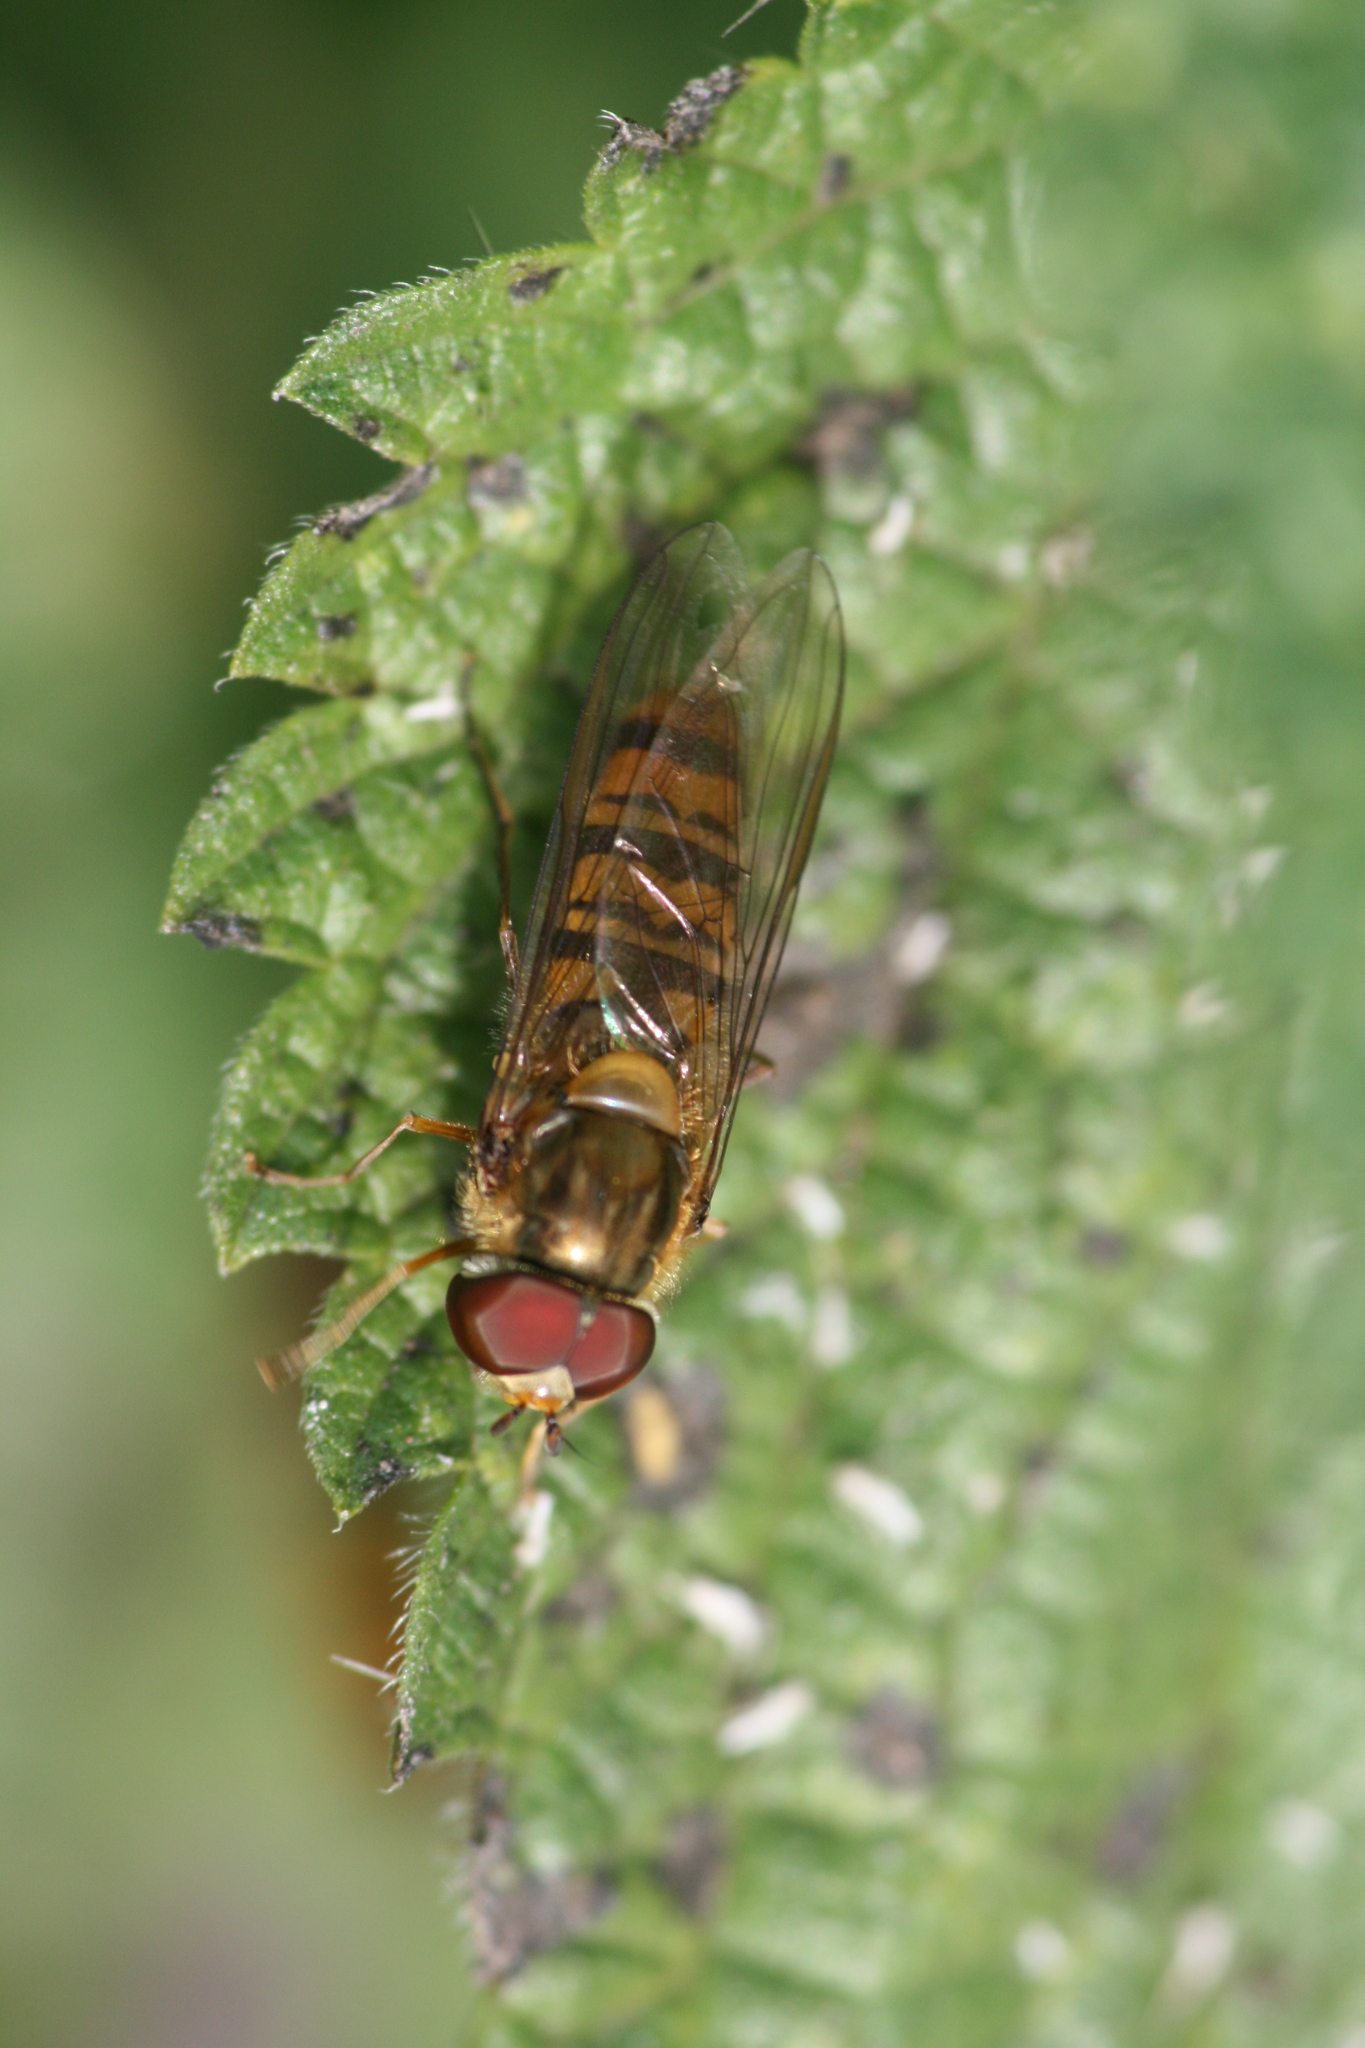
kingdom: Animalia
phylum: Arthropoda
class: Insecta
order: Diptera
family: Syrphidae
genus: Episyrphus
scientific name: Episyrphus balteatus
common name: Marmalade hoverfly
